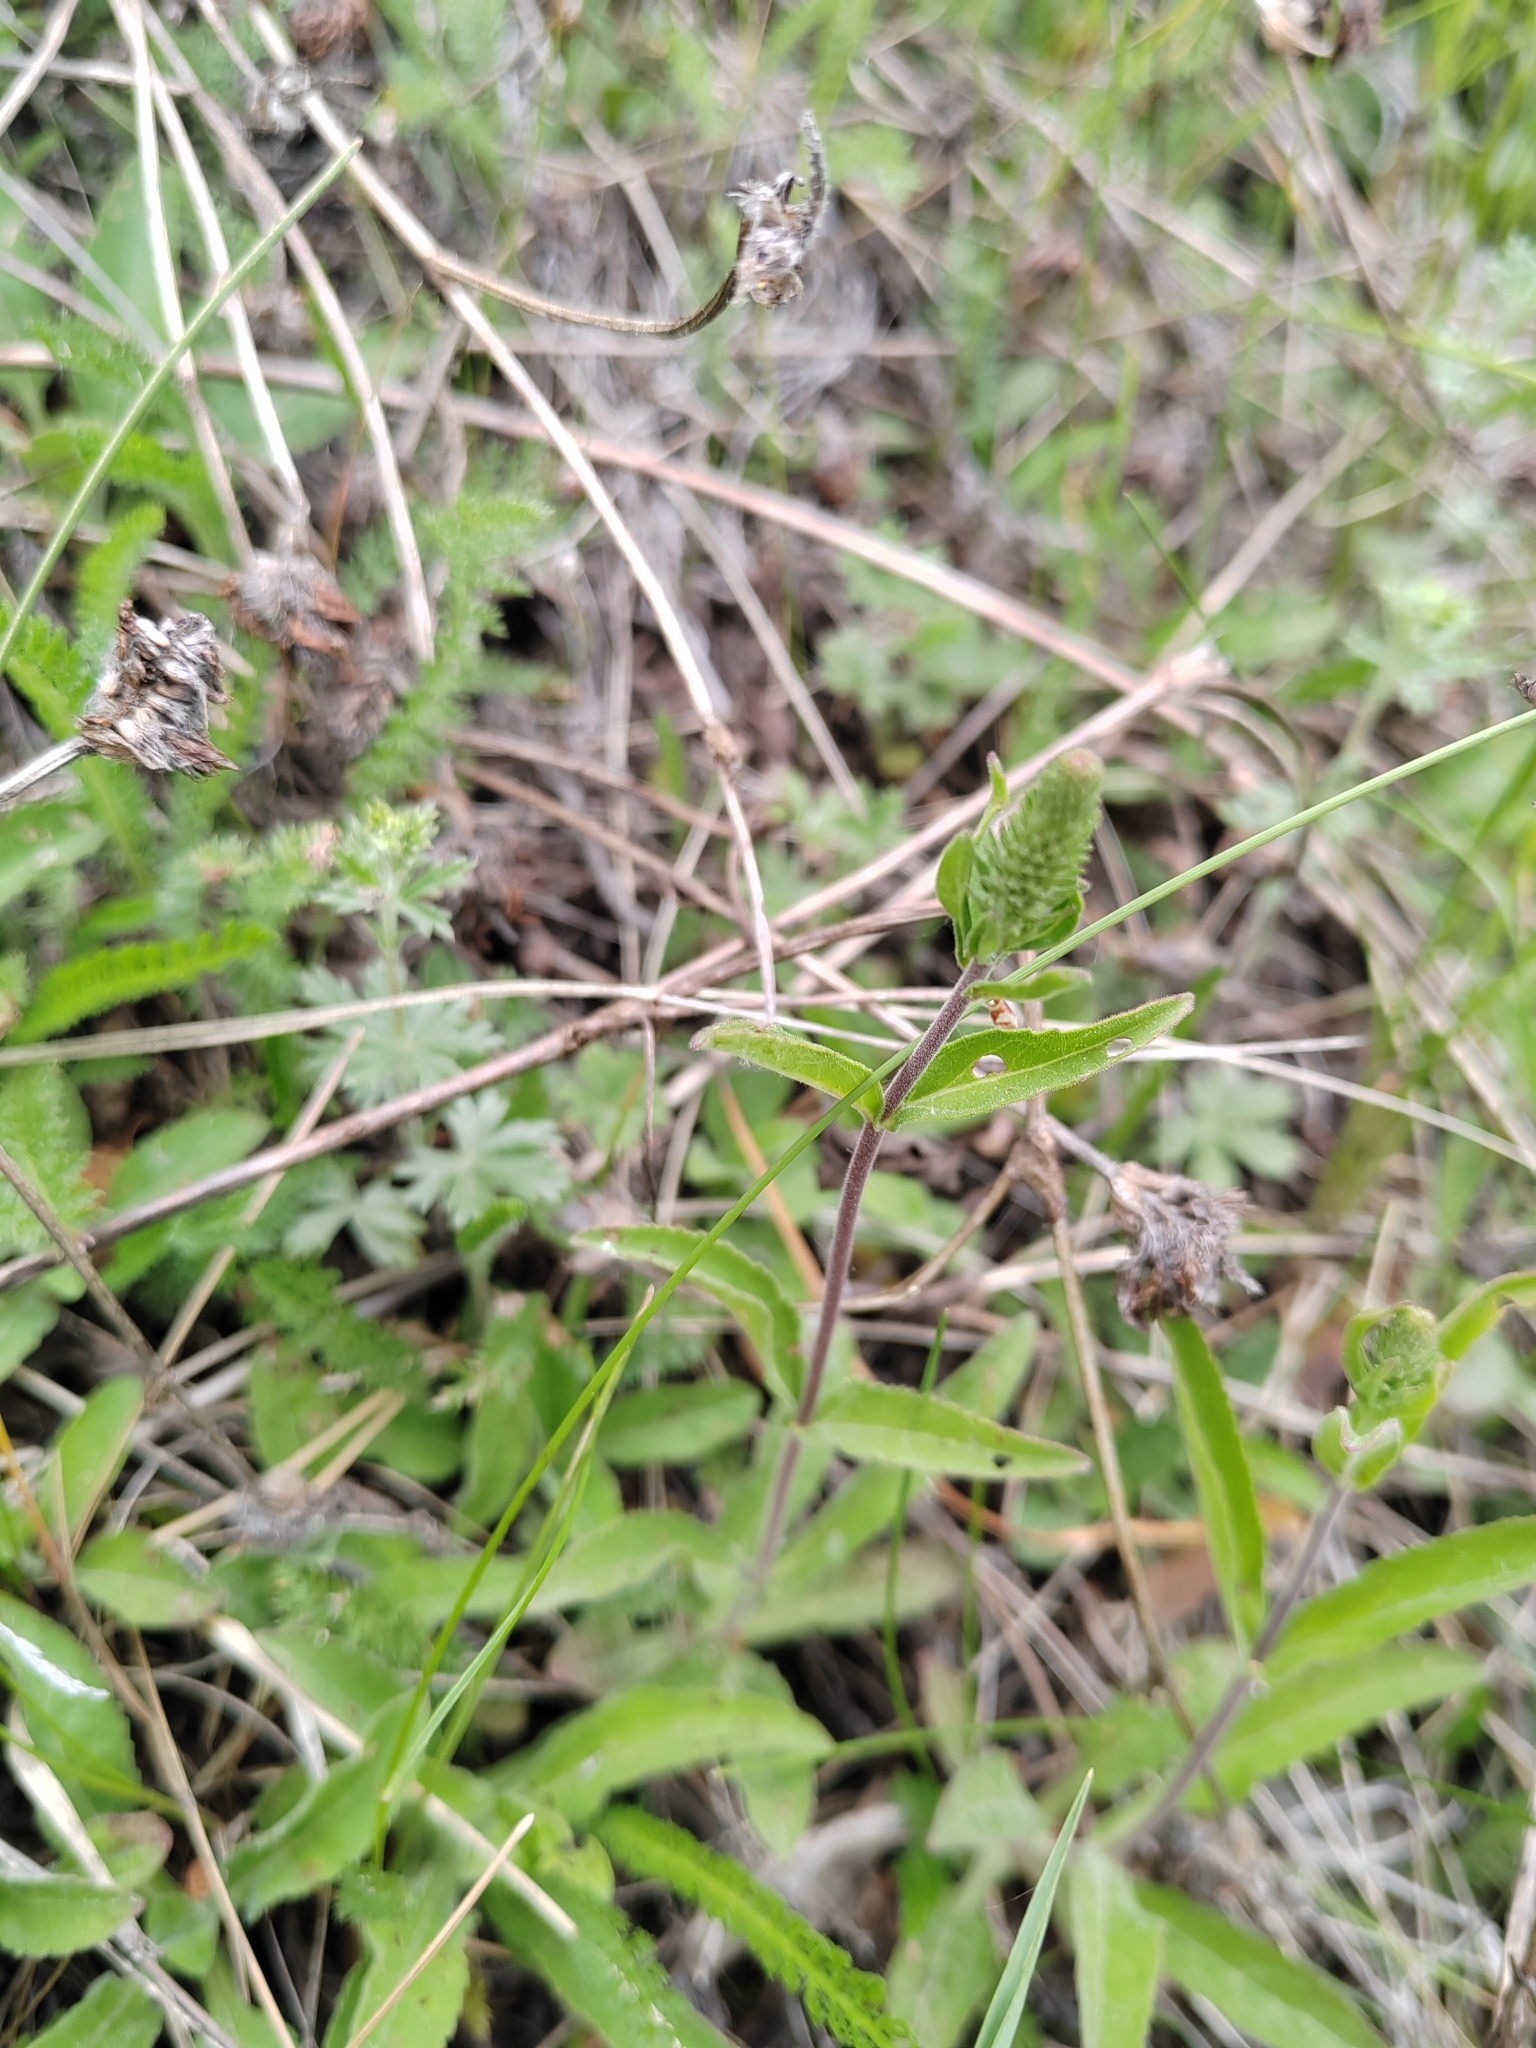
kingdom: Plantae
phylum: Tracheophyta
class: Magnoliopsida
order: Lamiales
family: Plantaginaceae
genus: Veronica
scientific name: Veronica spicata
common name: Spiked speedwell
